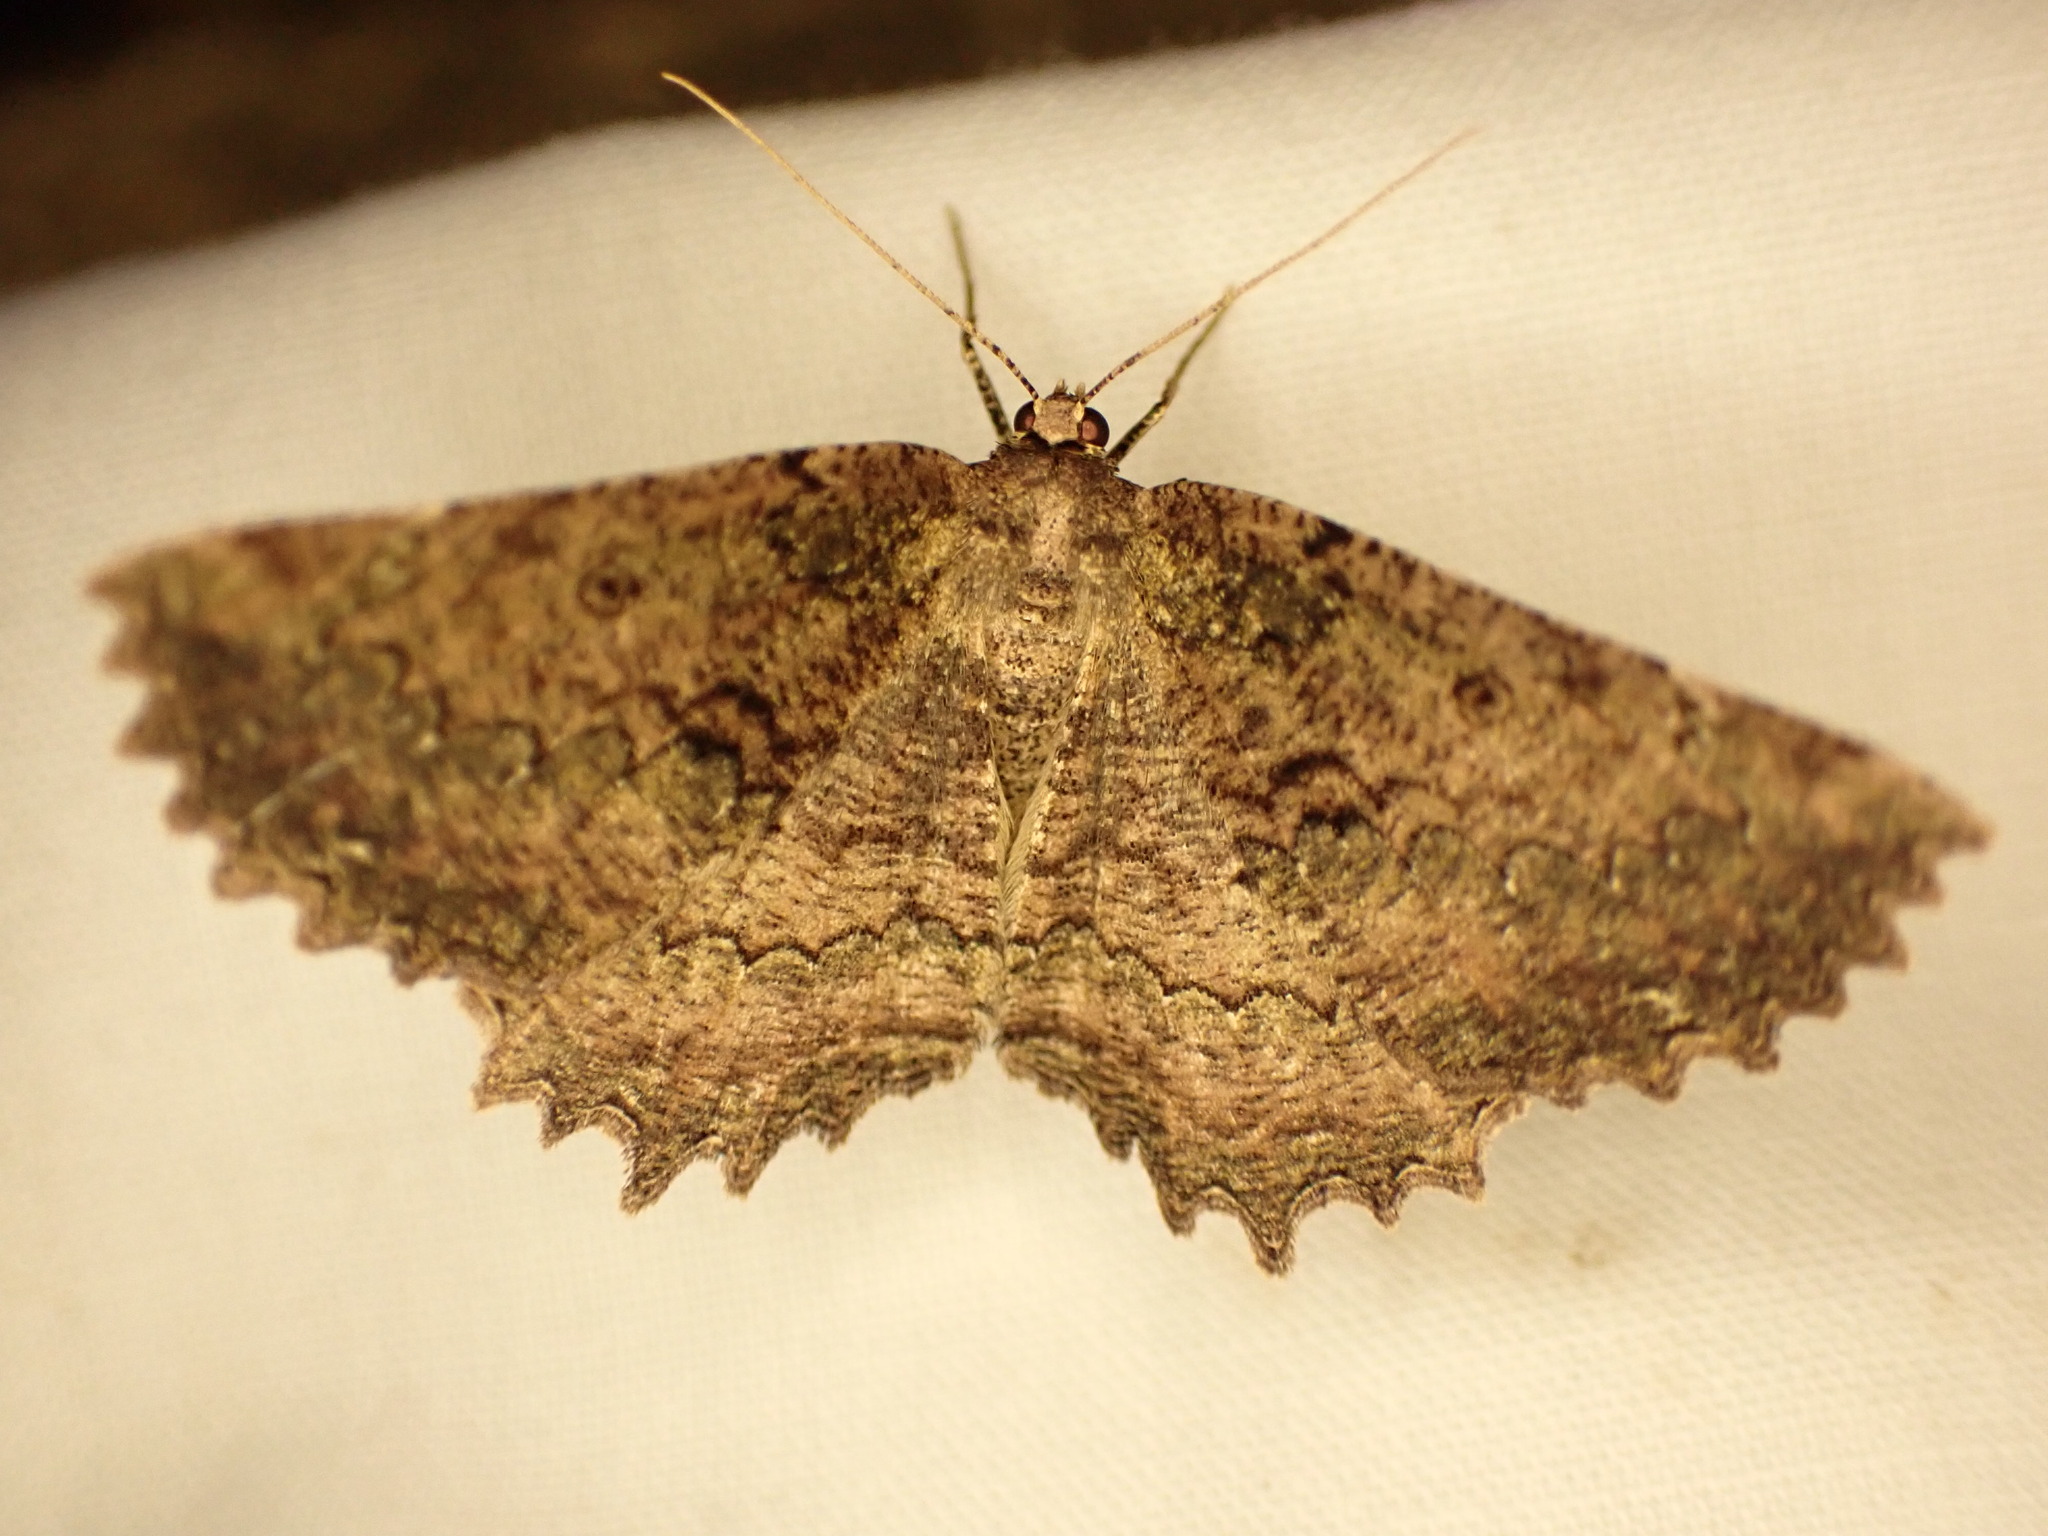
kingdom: Animalia
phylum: Arthropoda
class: Insecta
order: Lepidoptera
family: Geometridae
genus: Gellonia
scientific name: Gellonia pannularia
